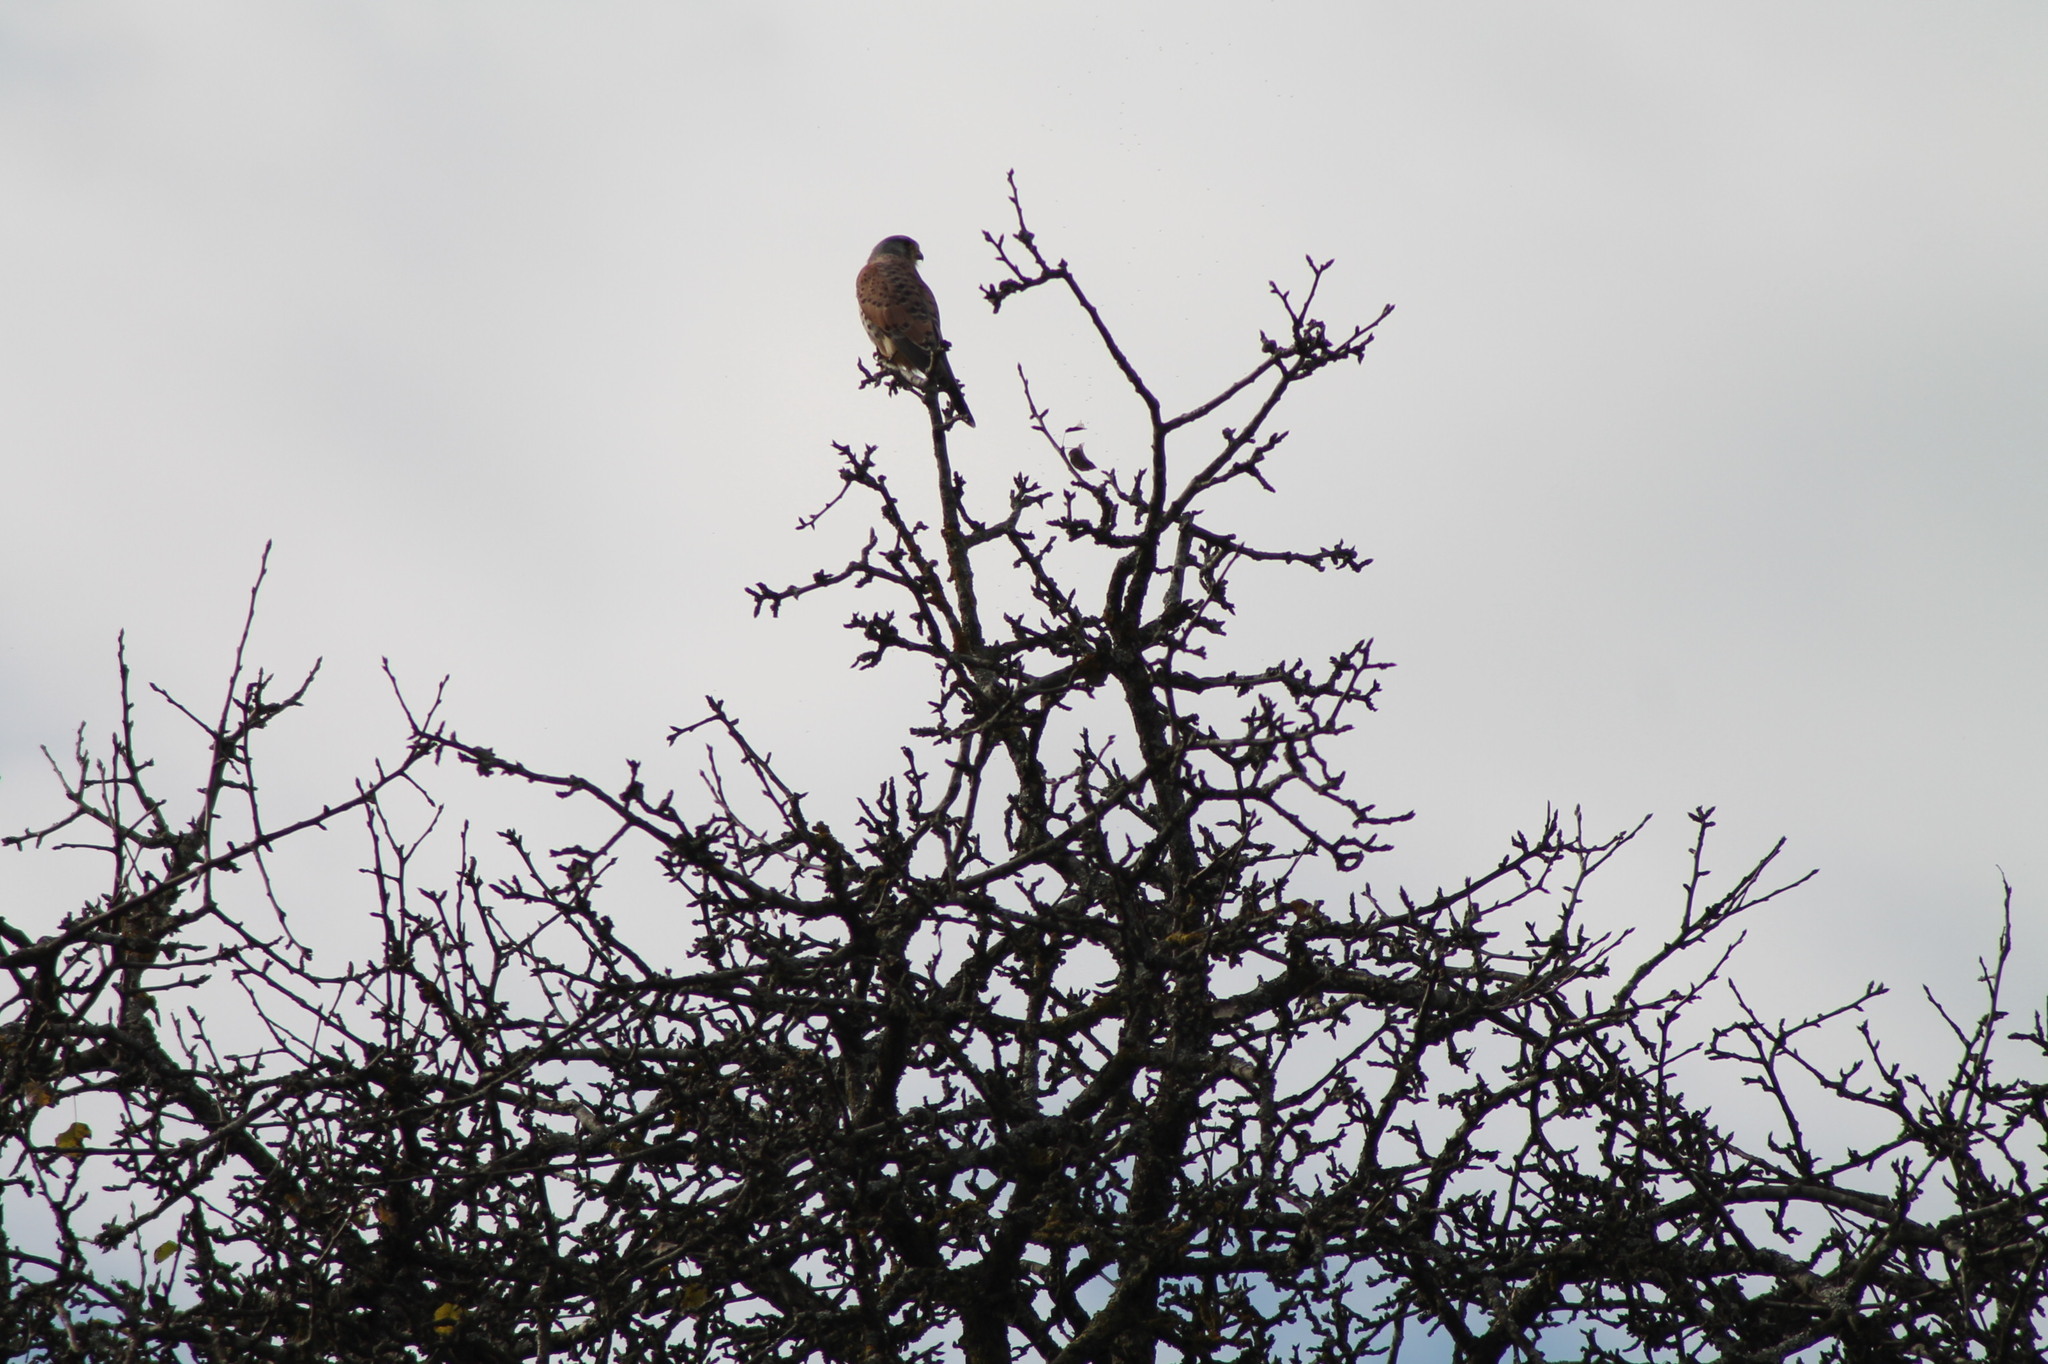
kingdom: Animalia
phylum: Chordata
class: Aves
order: Falconiformes
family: Falconidae
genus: Falco
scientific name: Falco tinnunculus
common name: Common kestrel
